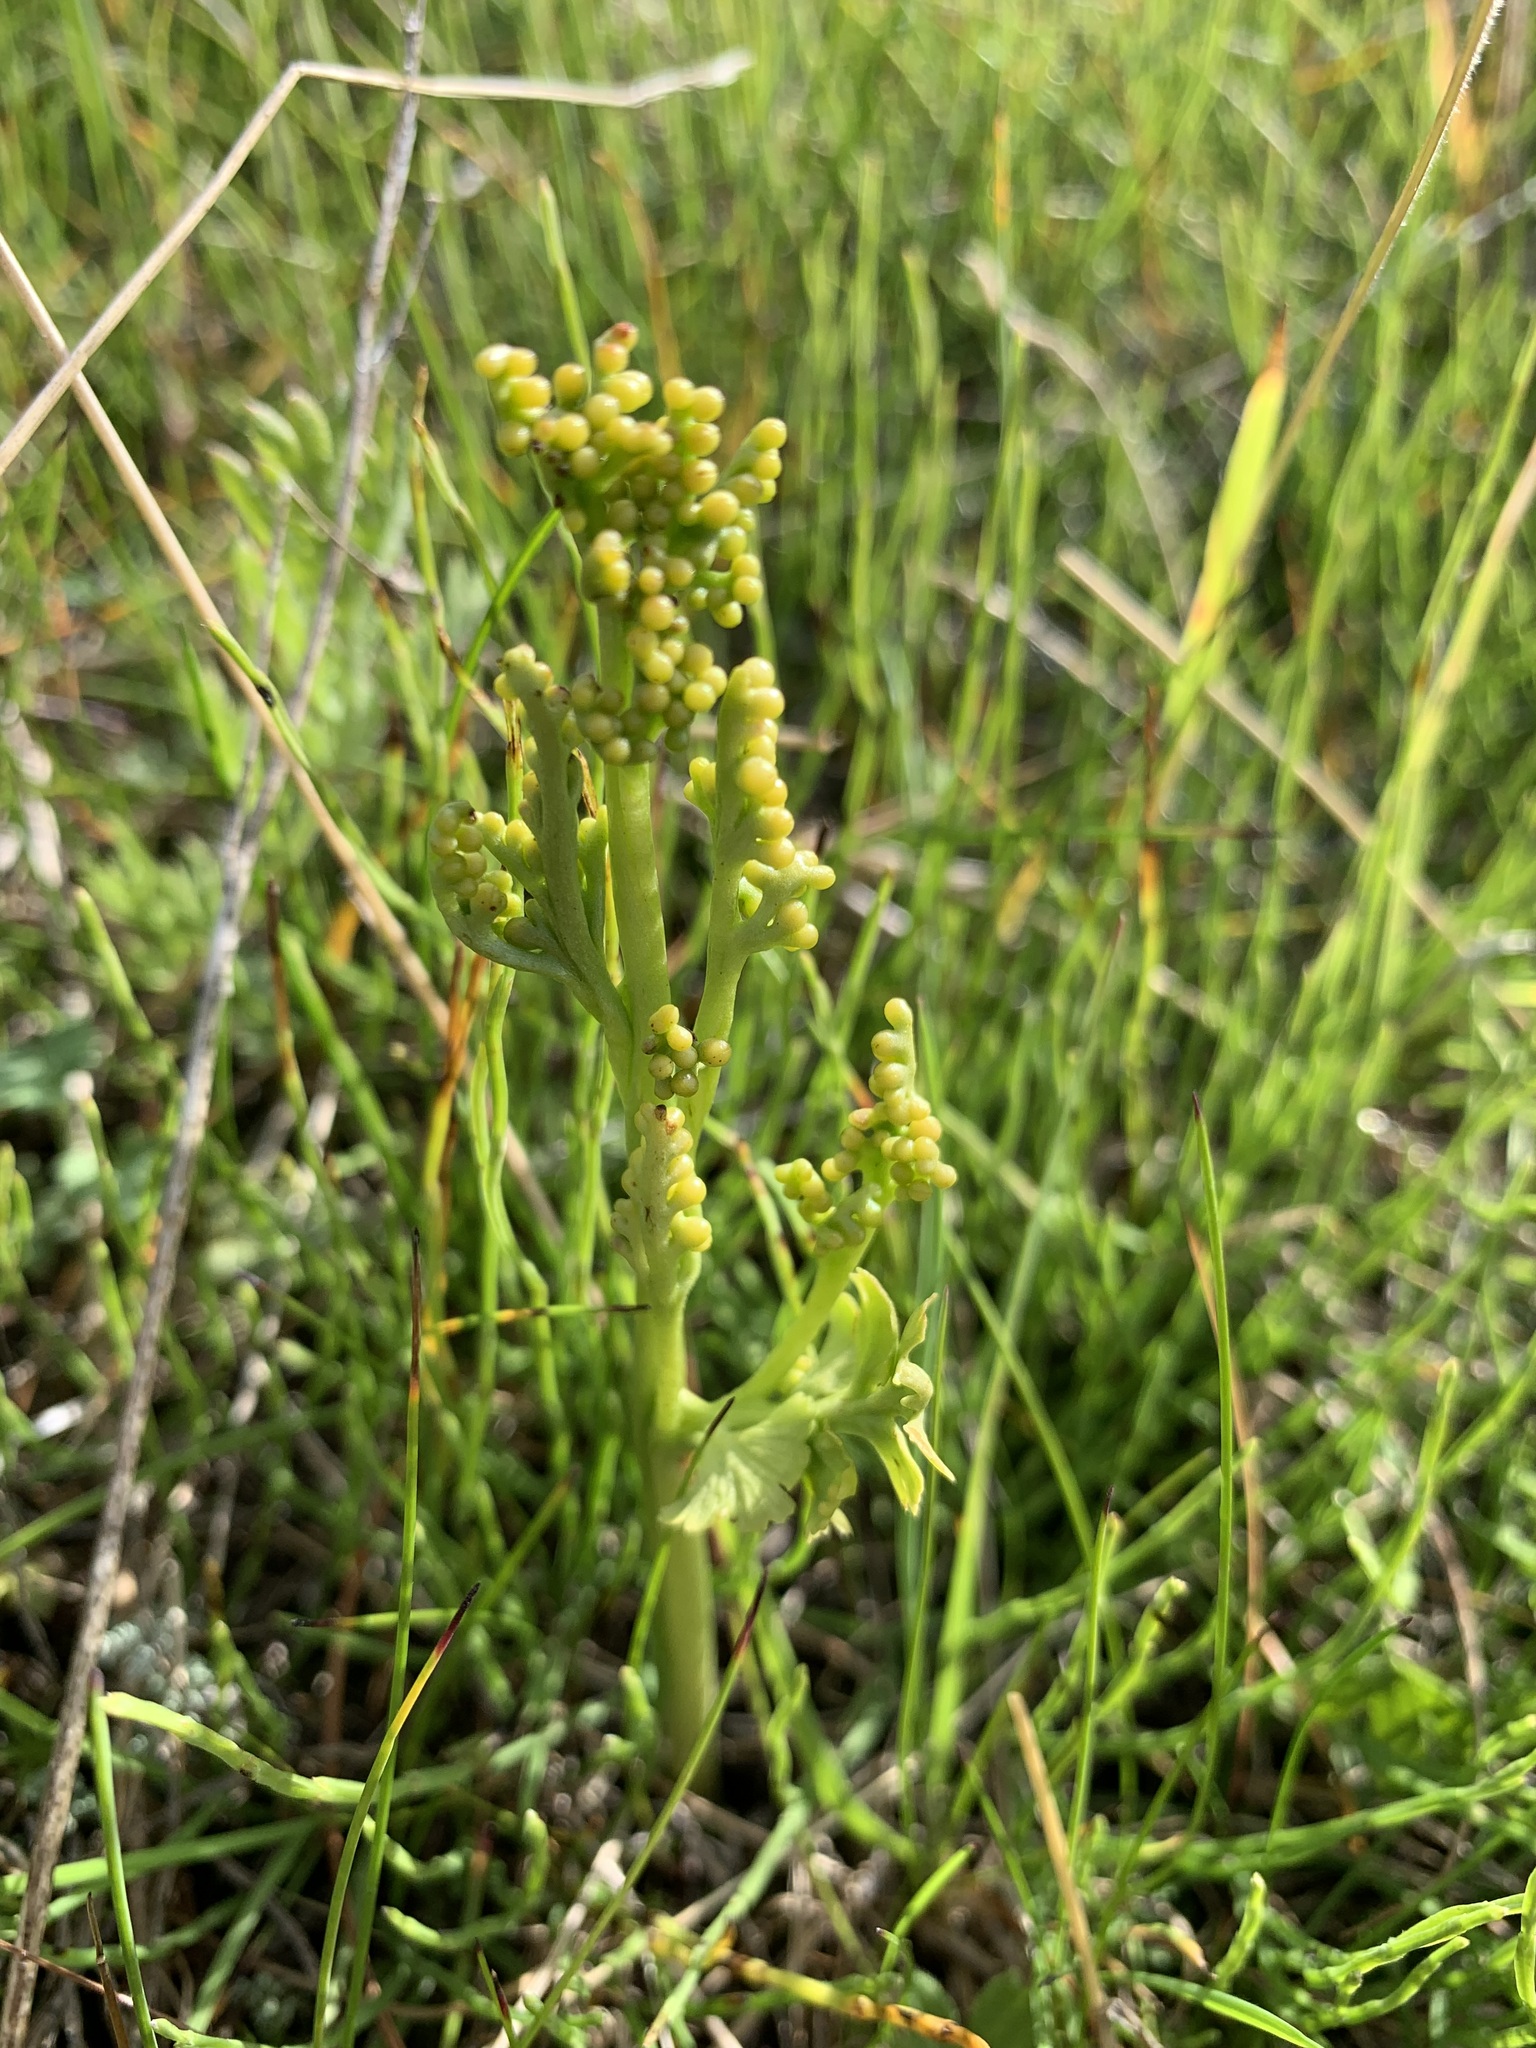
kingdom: Plantae
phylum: Tracheophyta
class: Polypodiopsida
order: Ophioglossales
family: Ophioglossaceae
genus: Botrychium
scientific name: Botrychium lunaria
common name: Moonwort
